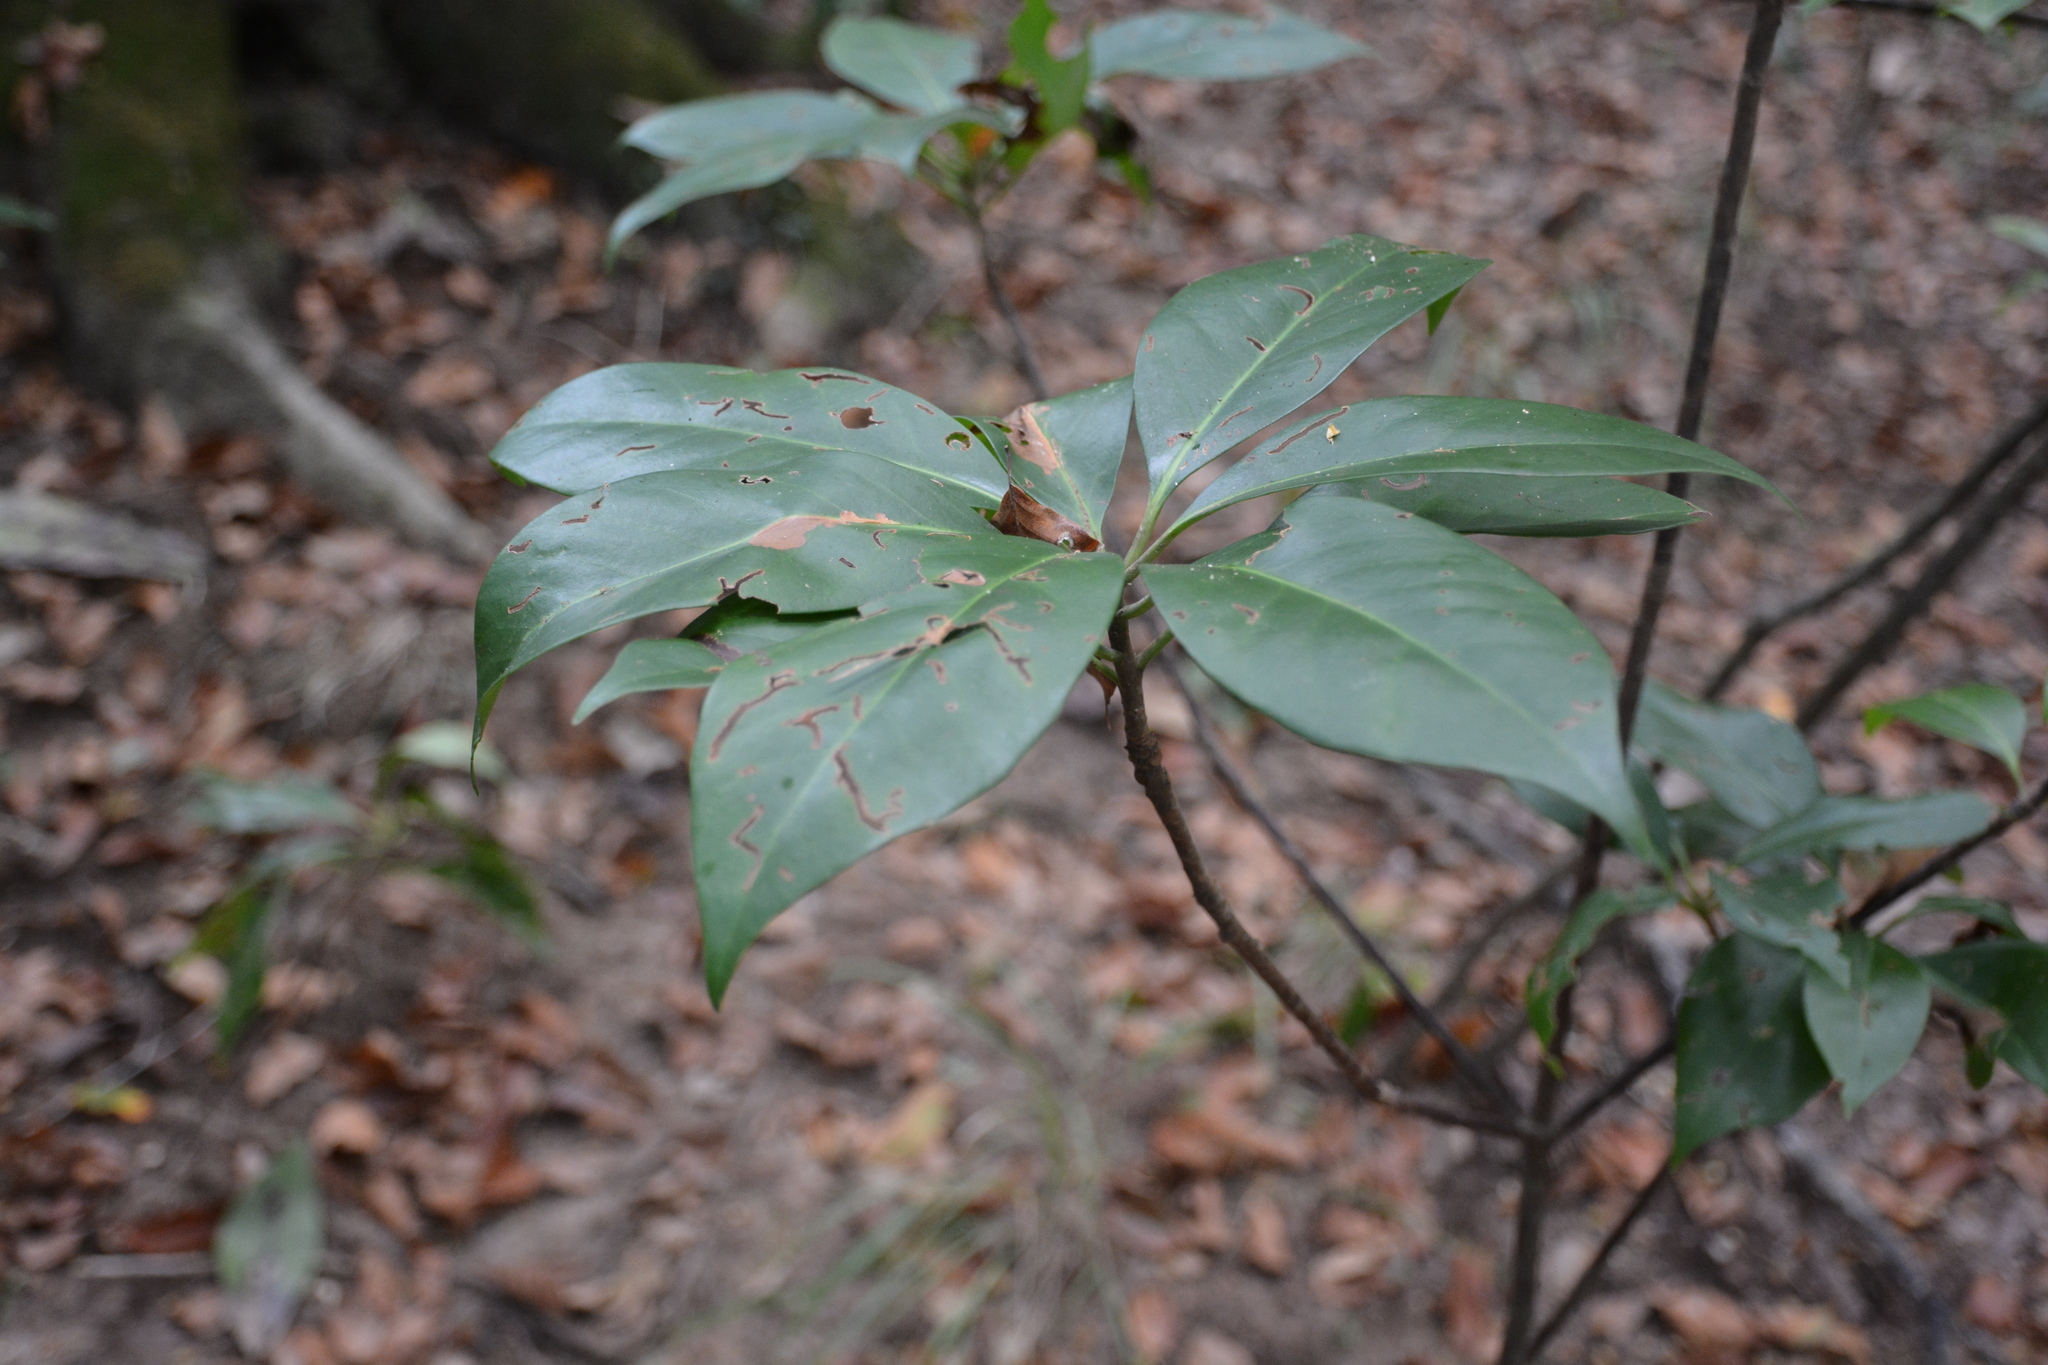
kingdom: Plantae
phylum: Tracheophyta
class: Magnoliopsida
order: Austrobaileyales
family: Schisandraceae
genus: Illicium
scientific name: Illicium floridanum
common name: Florida anisetree
